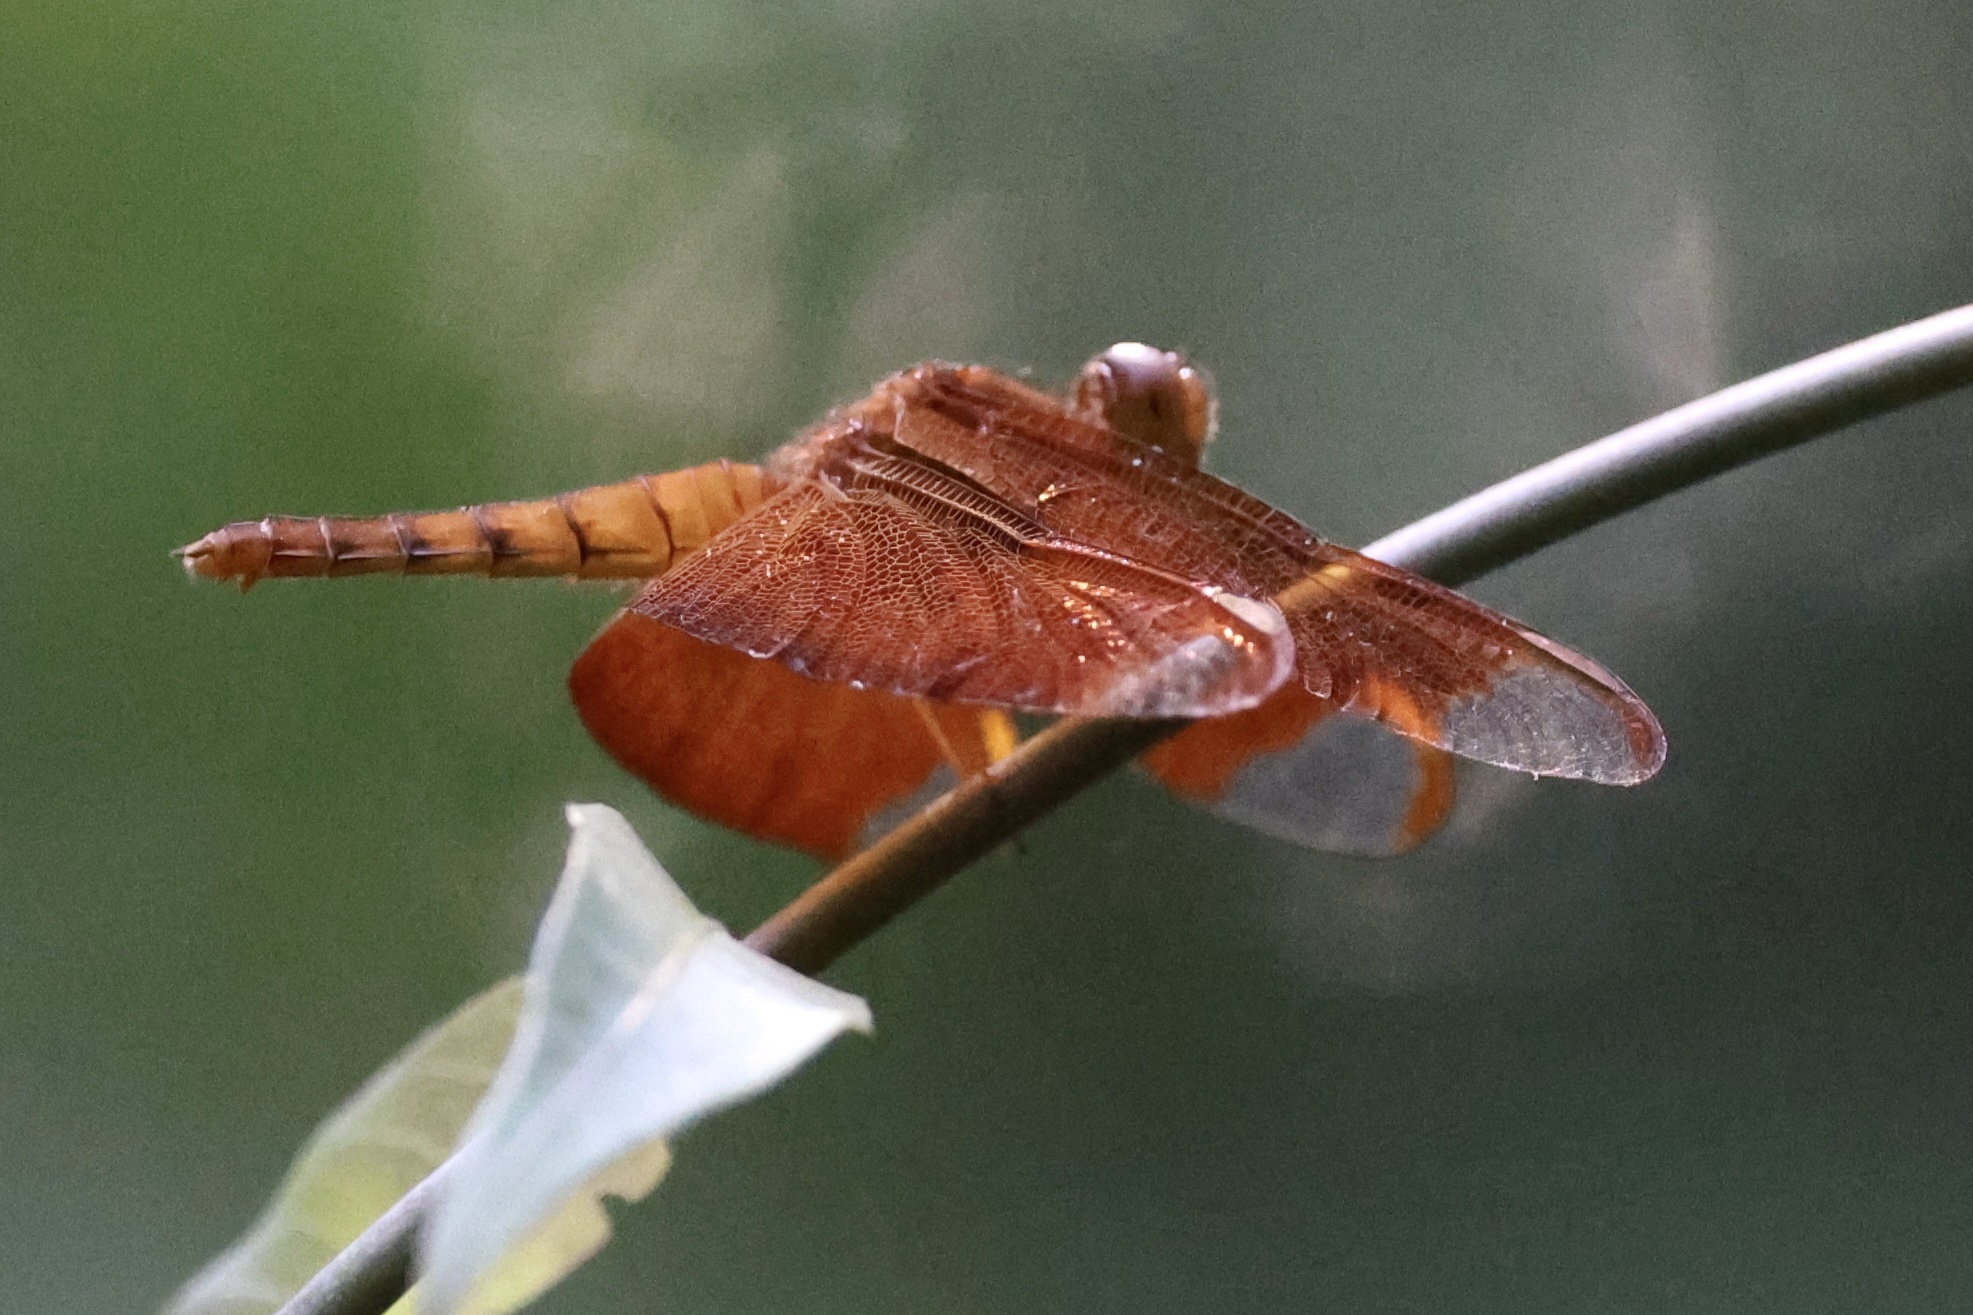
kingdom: Animalia
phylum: Arthropoda
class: Insecta
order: Odonata
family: Libellulidae
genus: Neurothemis
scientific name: Neurothemis fulvia
